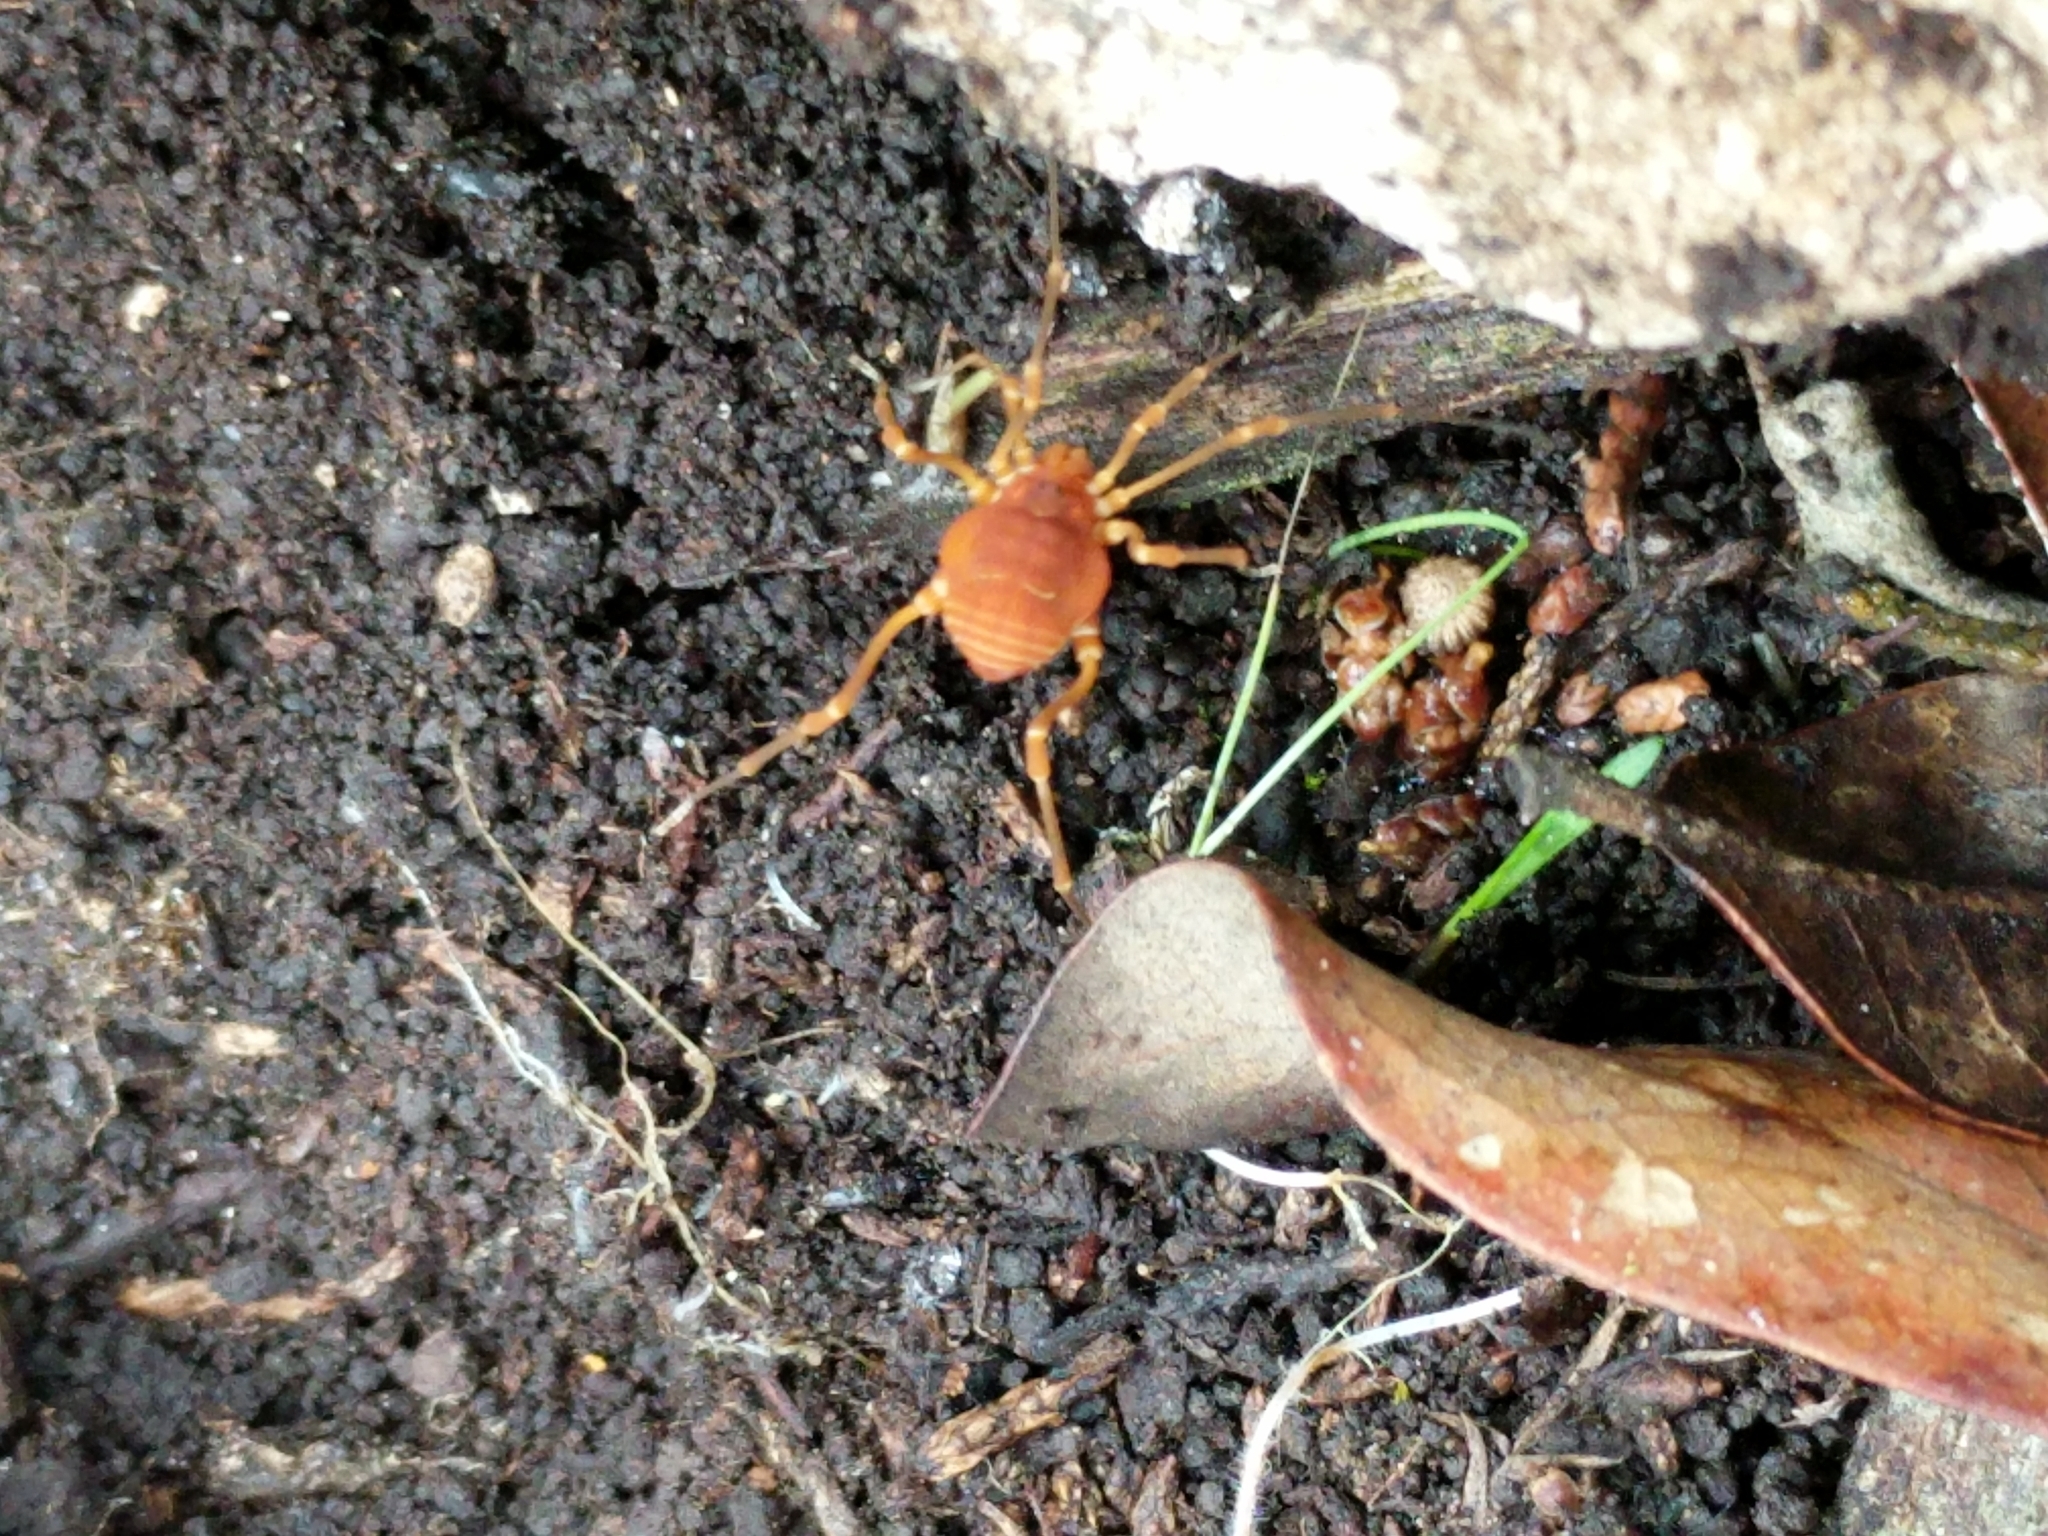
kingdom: Animalia
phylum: Arthropoda
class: Arachnida
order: Opiliones
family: Cosmetidae
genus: Libitioides
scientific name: Libitioides sayi
